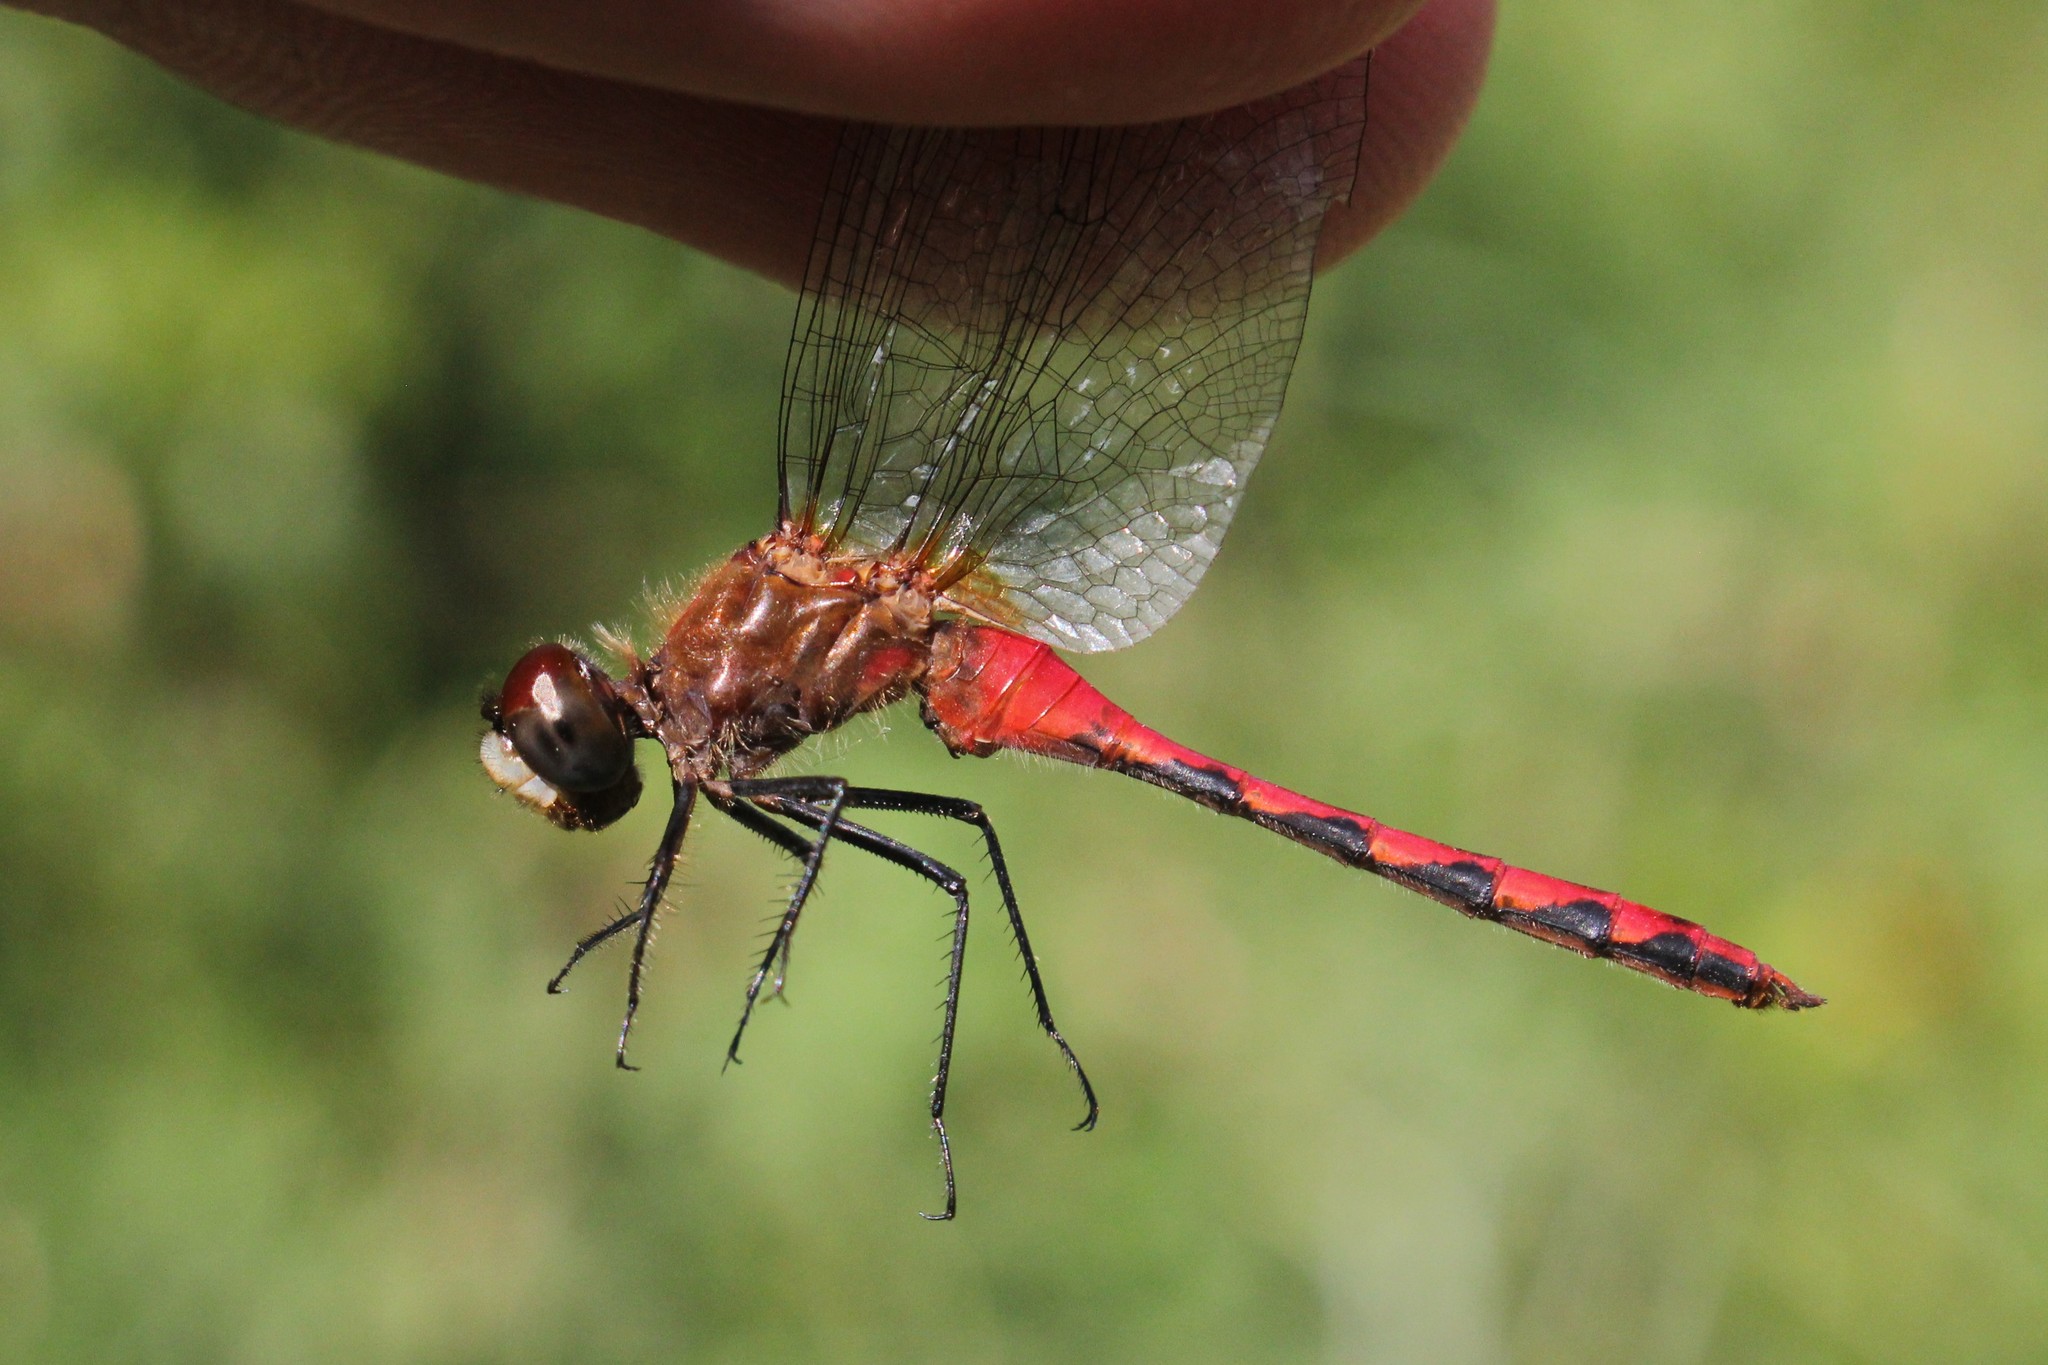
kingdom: Animalia
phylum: Arthropoda
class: Insecta
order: Odonata
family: Libellulidae
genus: Sympetrum
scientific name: Sympetrum obtrusum
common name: White-faced meadowhawk
